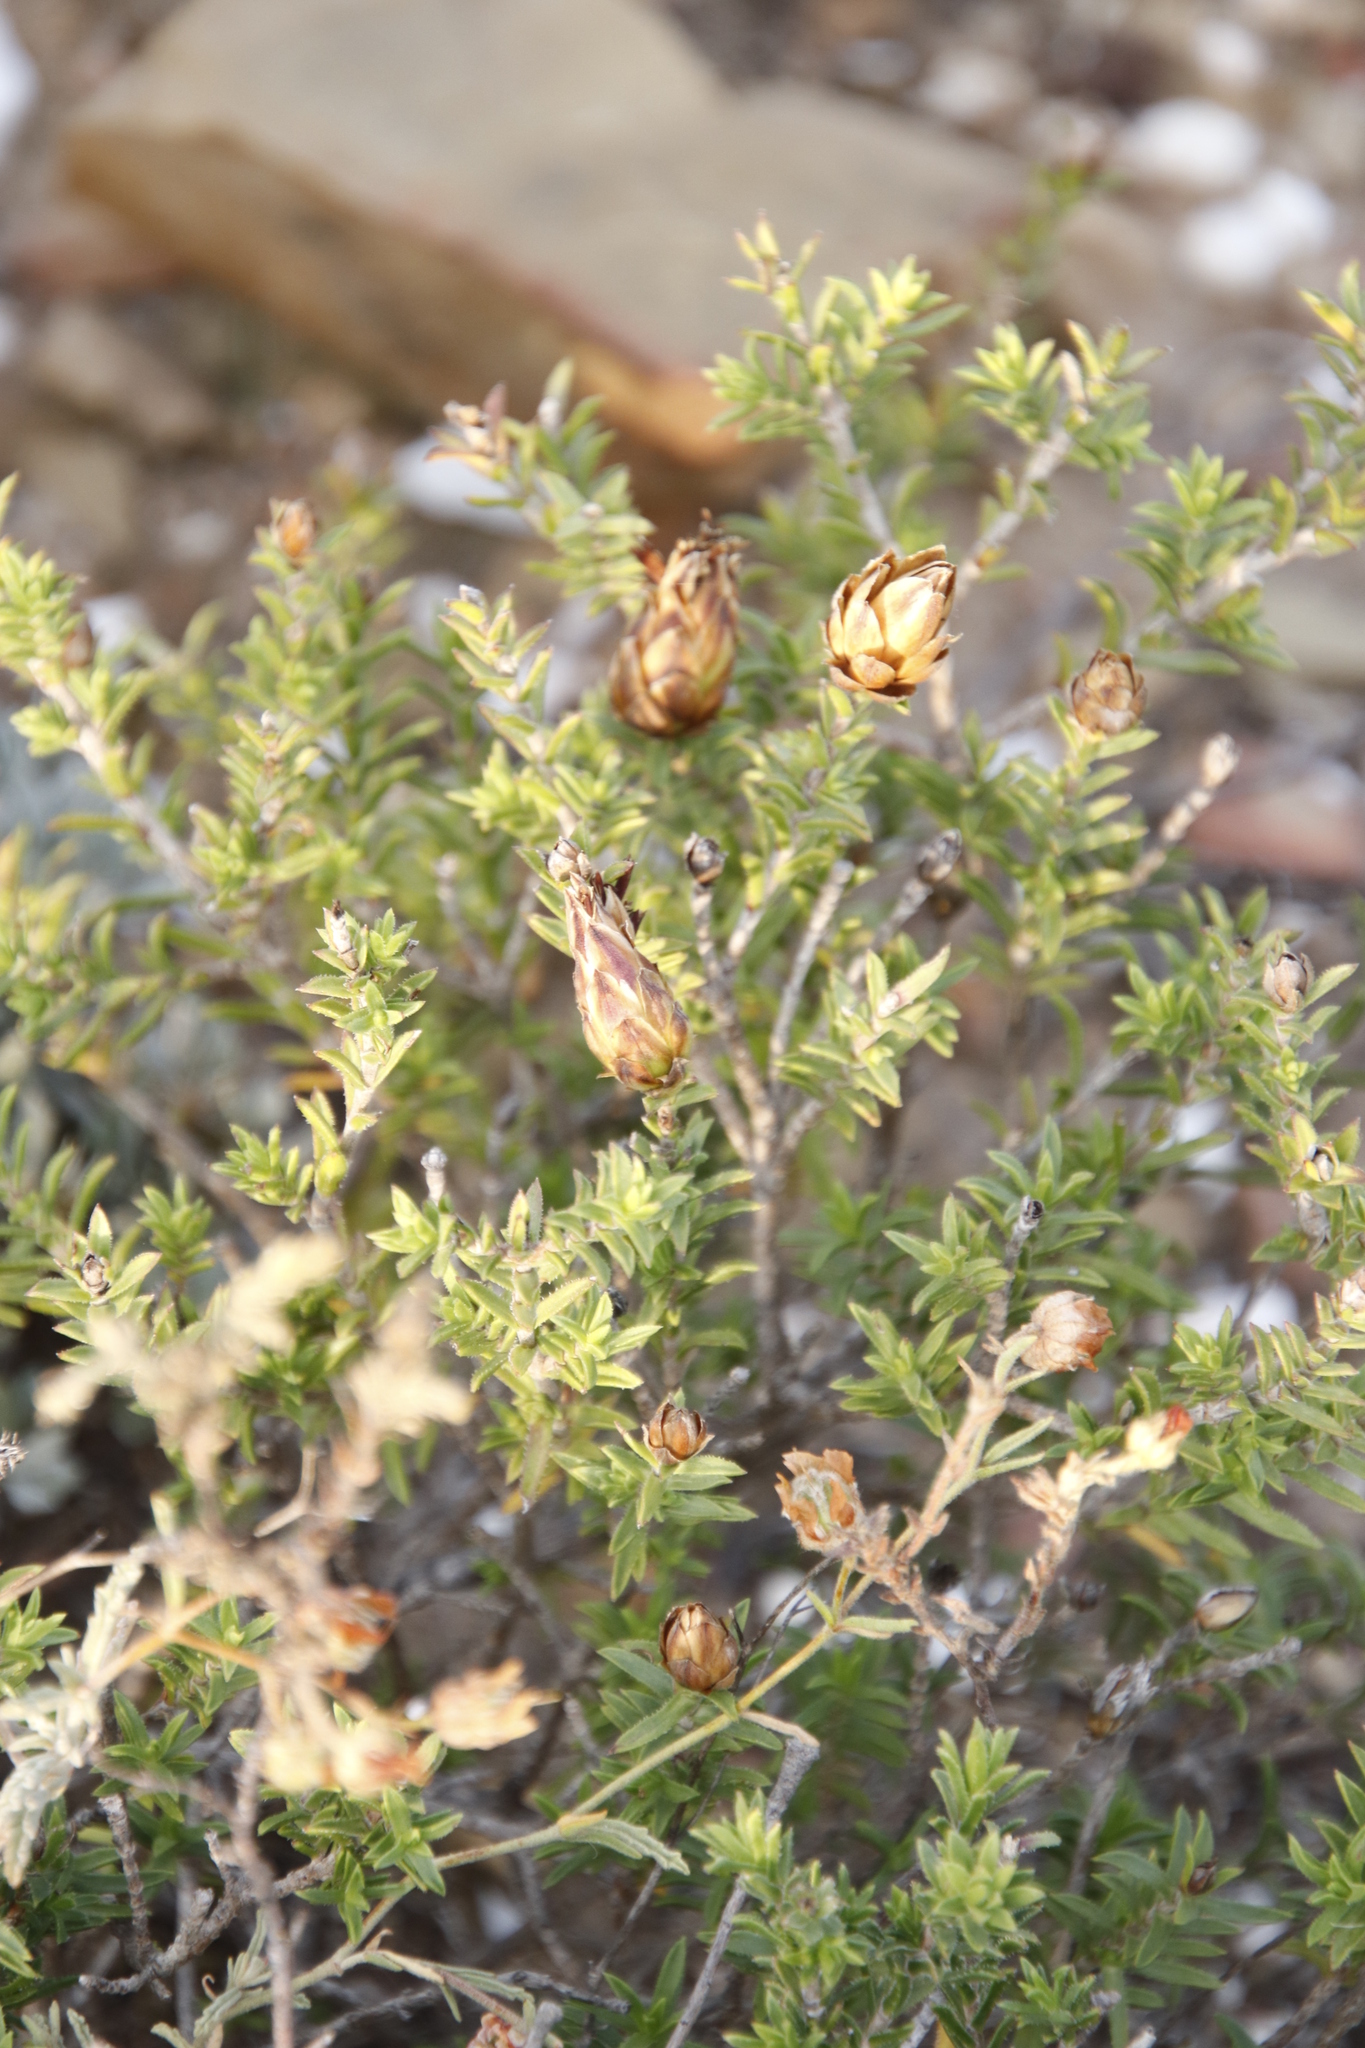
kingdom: Plantae
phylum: Tracheophyta
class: Magnoliopsida
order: Asterales
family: Asteraceae
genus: Pteronia
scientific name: Pteronia hutchinsoniana
